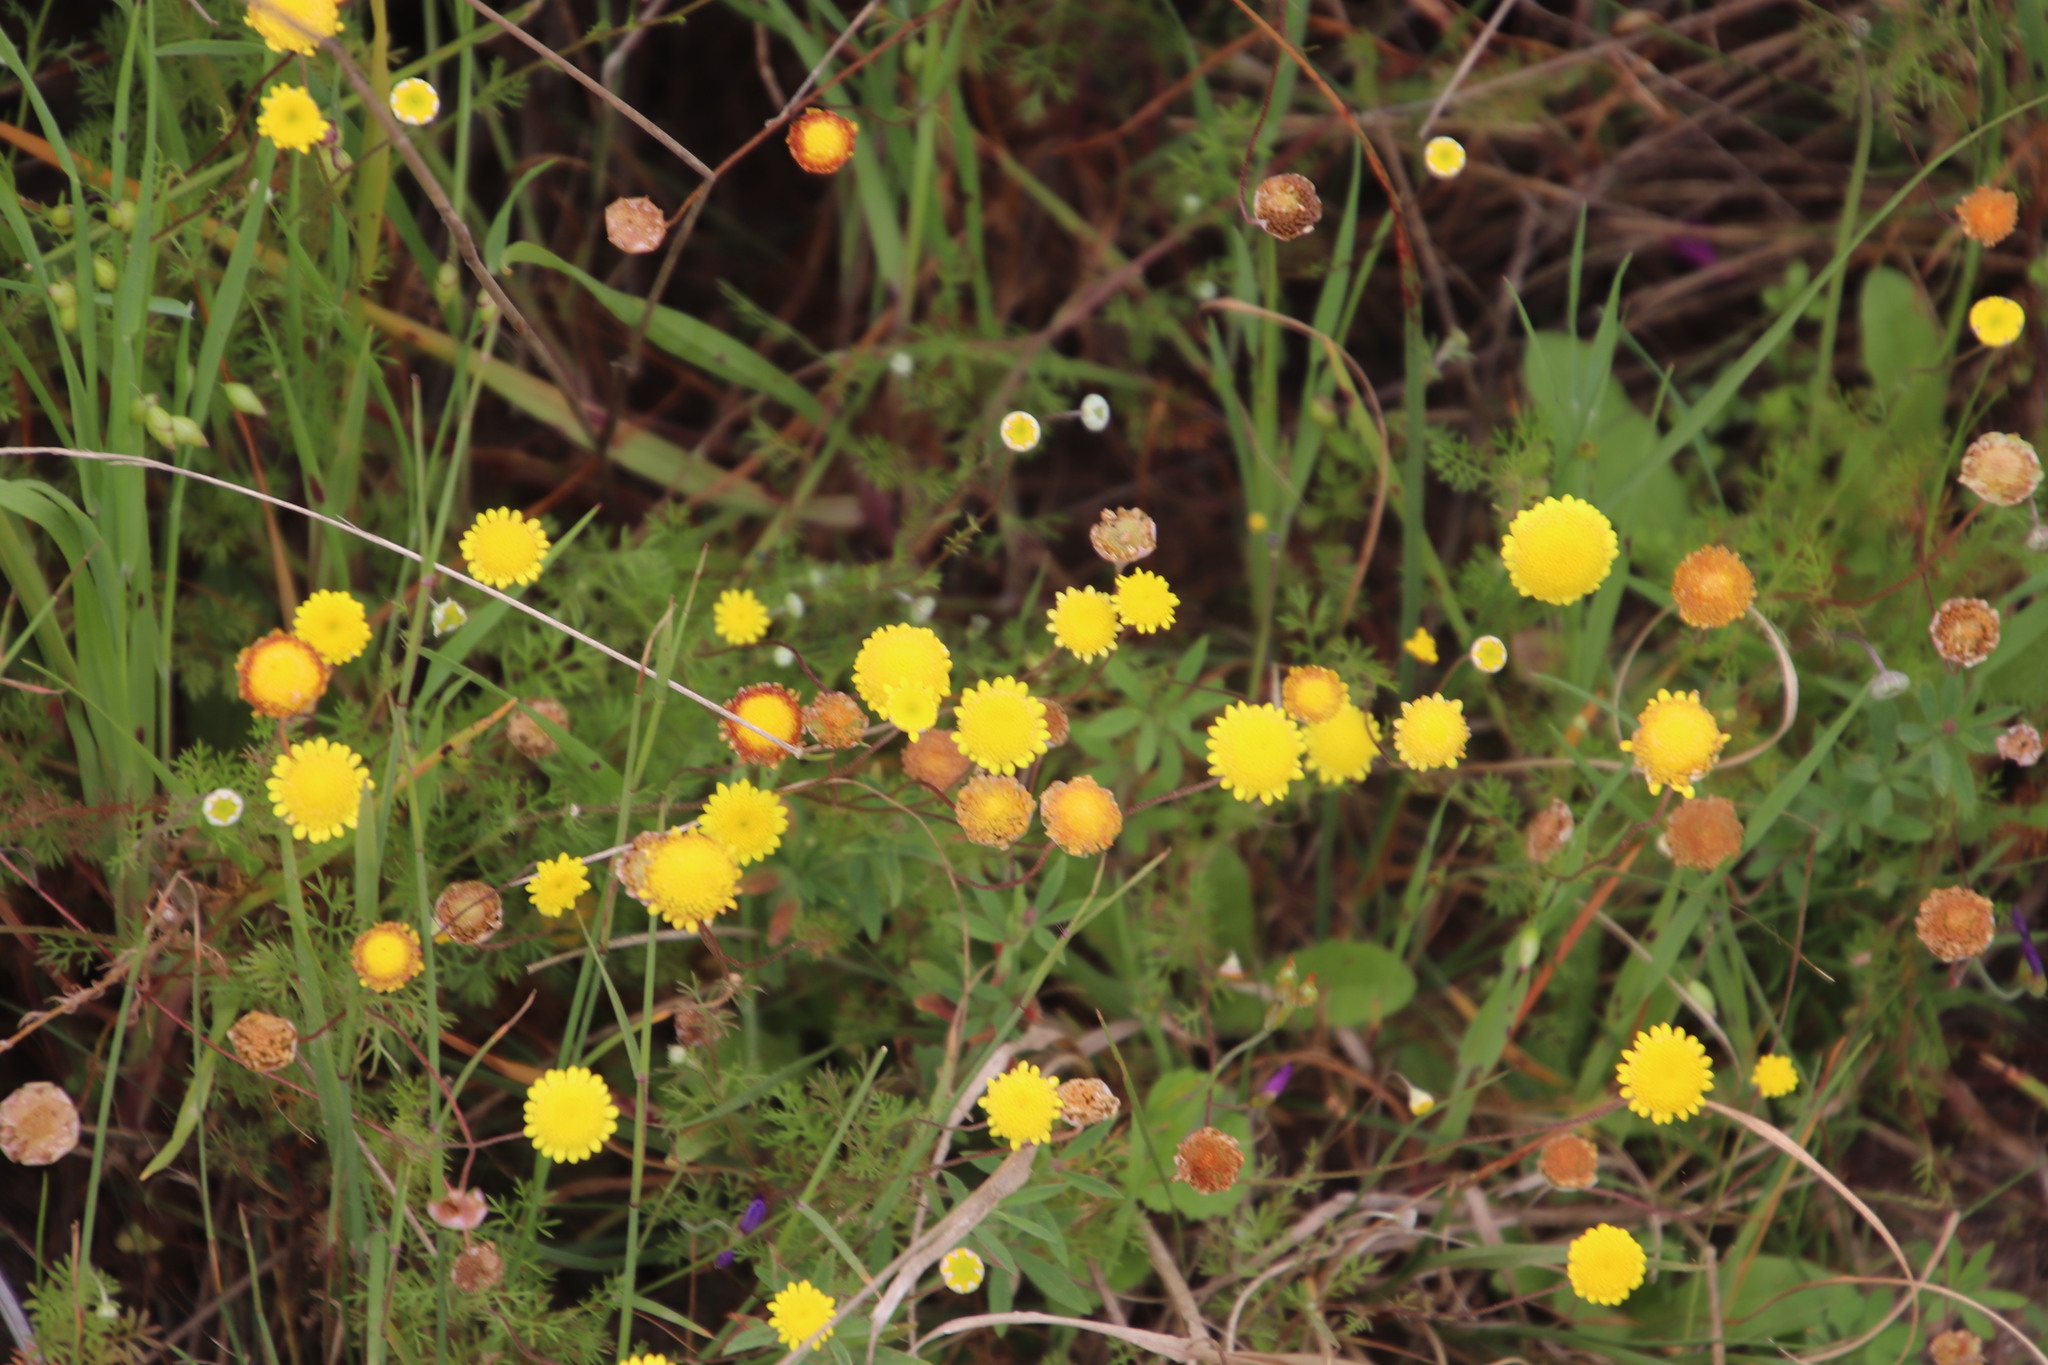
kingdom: Plantae
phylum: Tracheophyta
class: Magnoliopsida
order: Asterales
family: Asteraceae
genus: Cotula
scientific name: Cotula pruinosa
